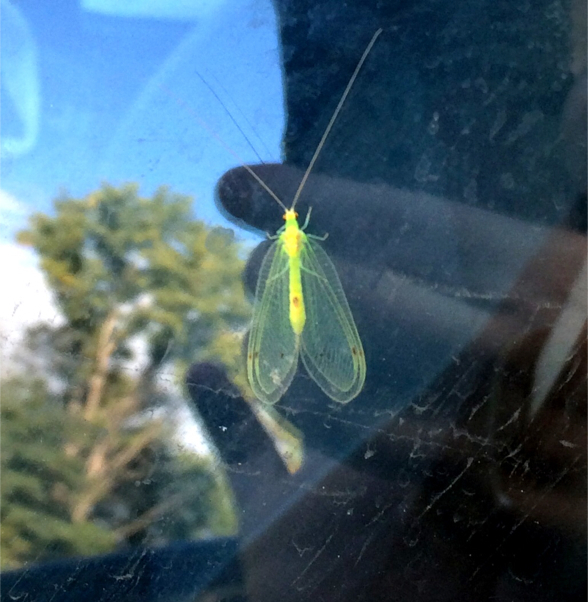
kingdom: Animalia
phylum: Arthropoda
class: Insecta
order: Neuroptera
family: Chrysopidae
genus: Leucochrysa
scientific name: Leucochrysa insularis
